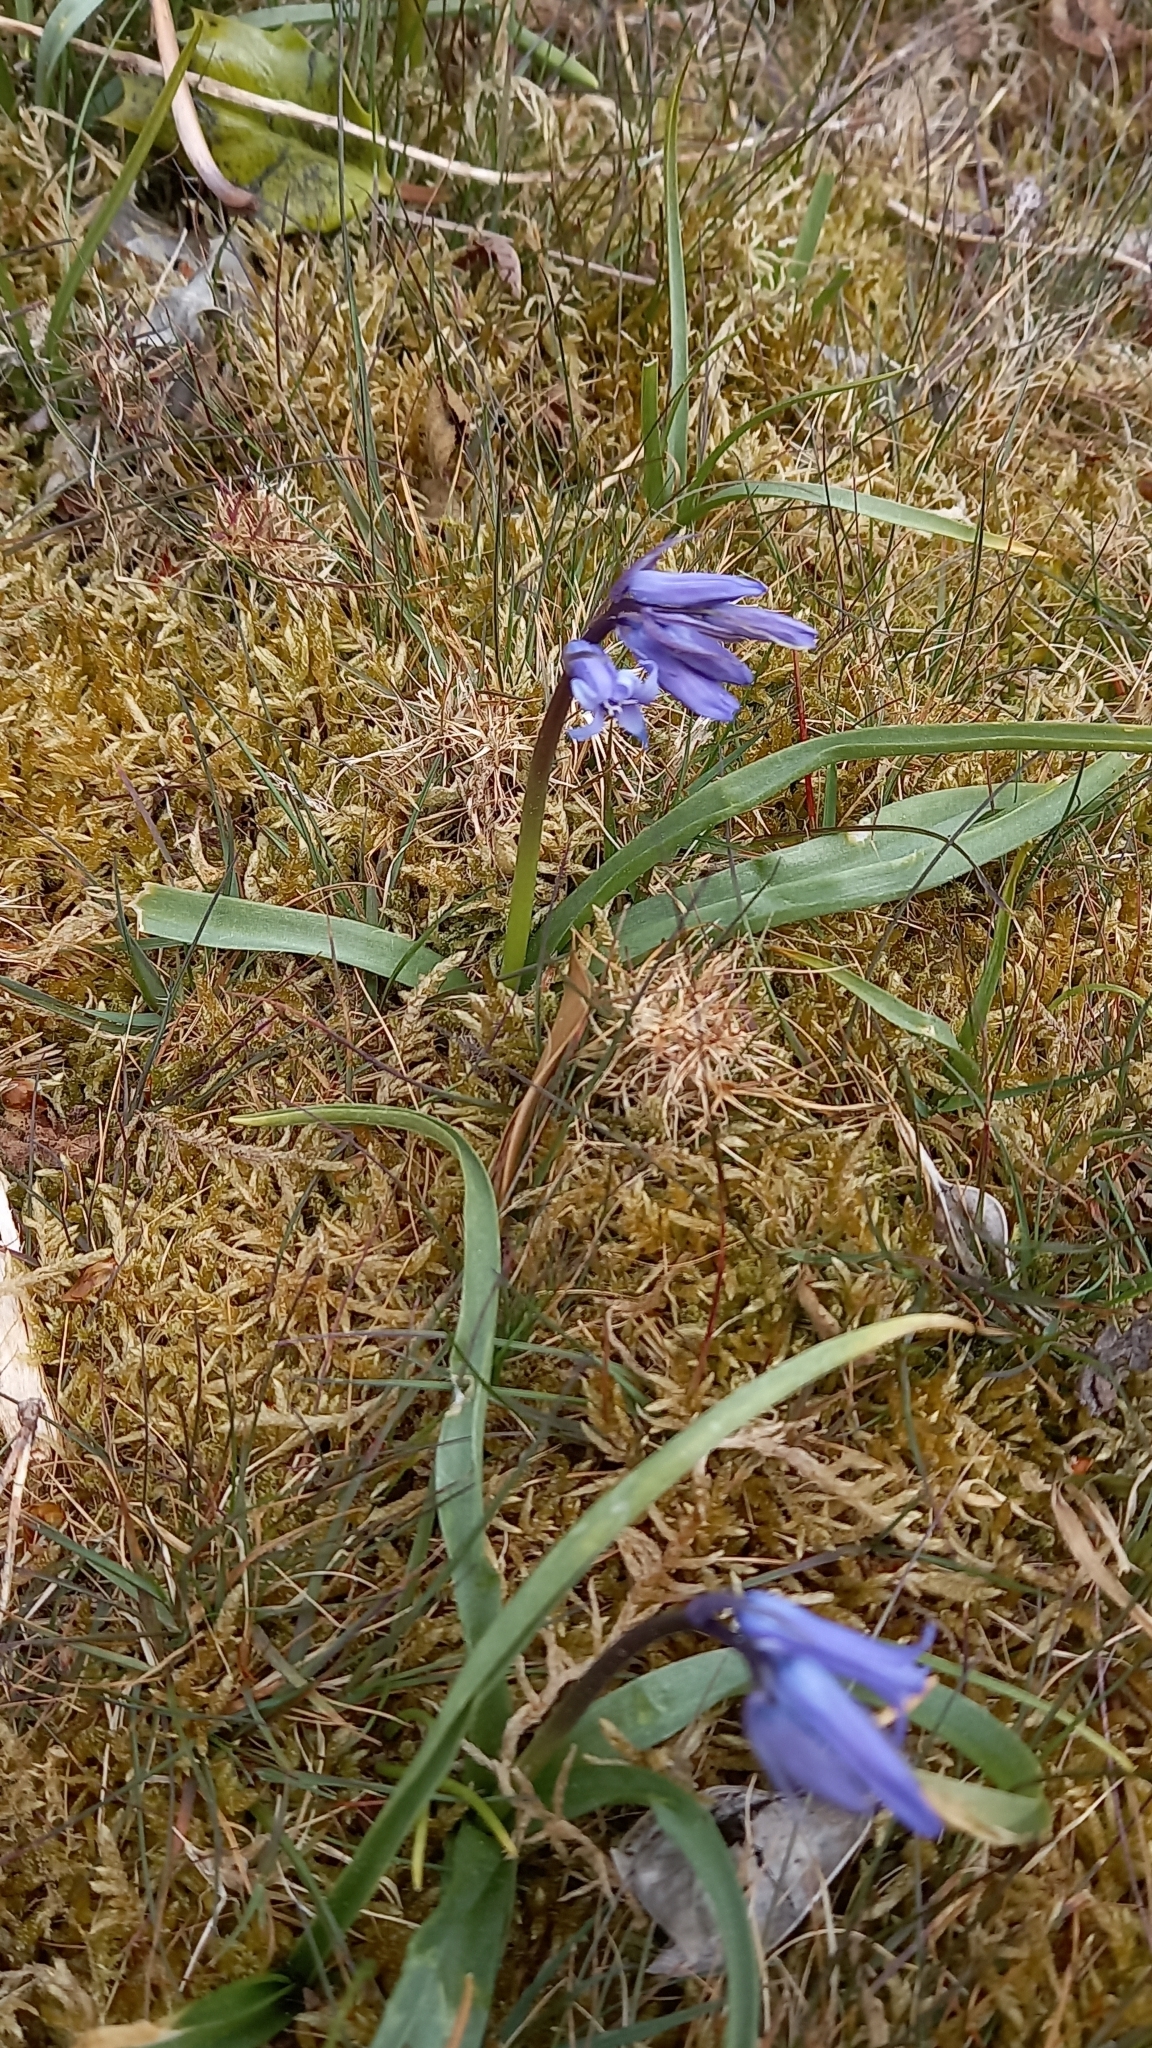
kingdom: Plantae
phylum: Tracheophyta
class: Liliopsida
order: Asparagales
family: Asparagaceae
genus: Hyacinthoides
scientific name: Hyacinthoides non-scripta
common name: Bluebell
